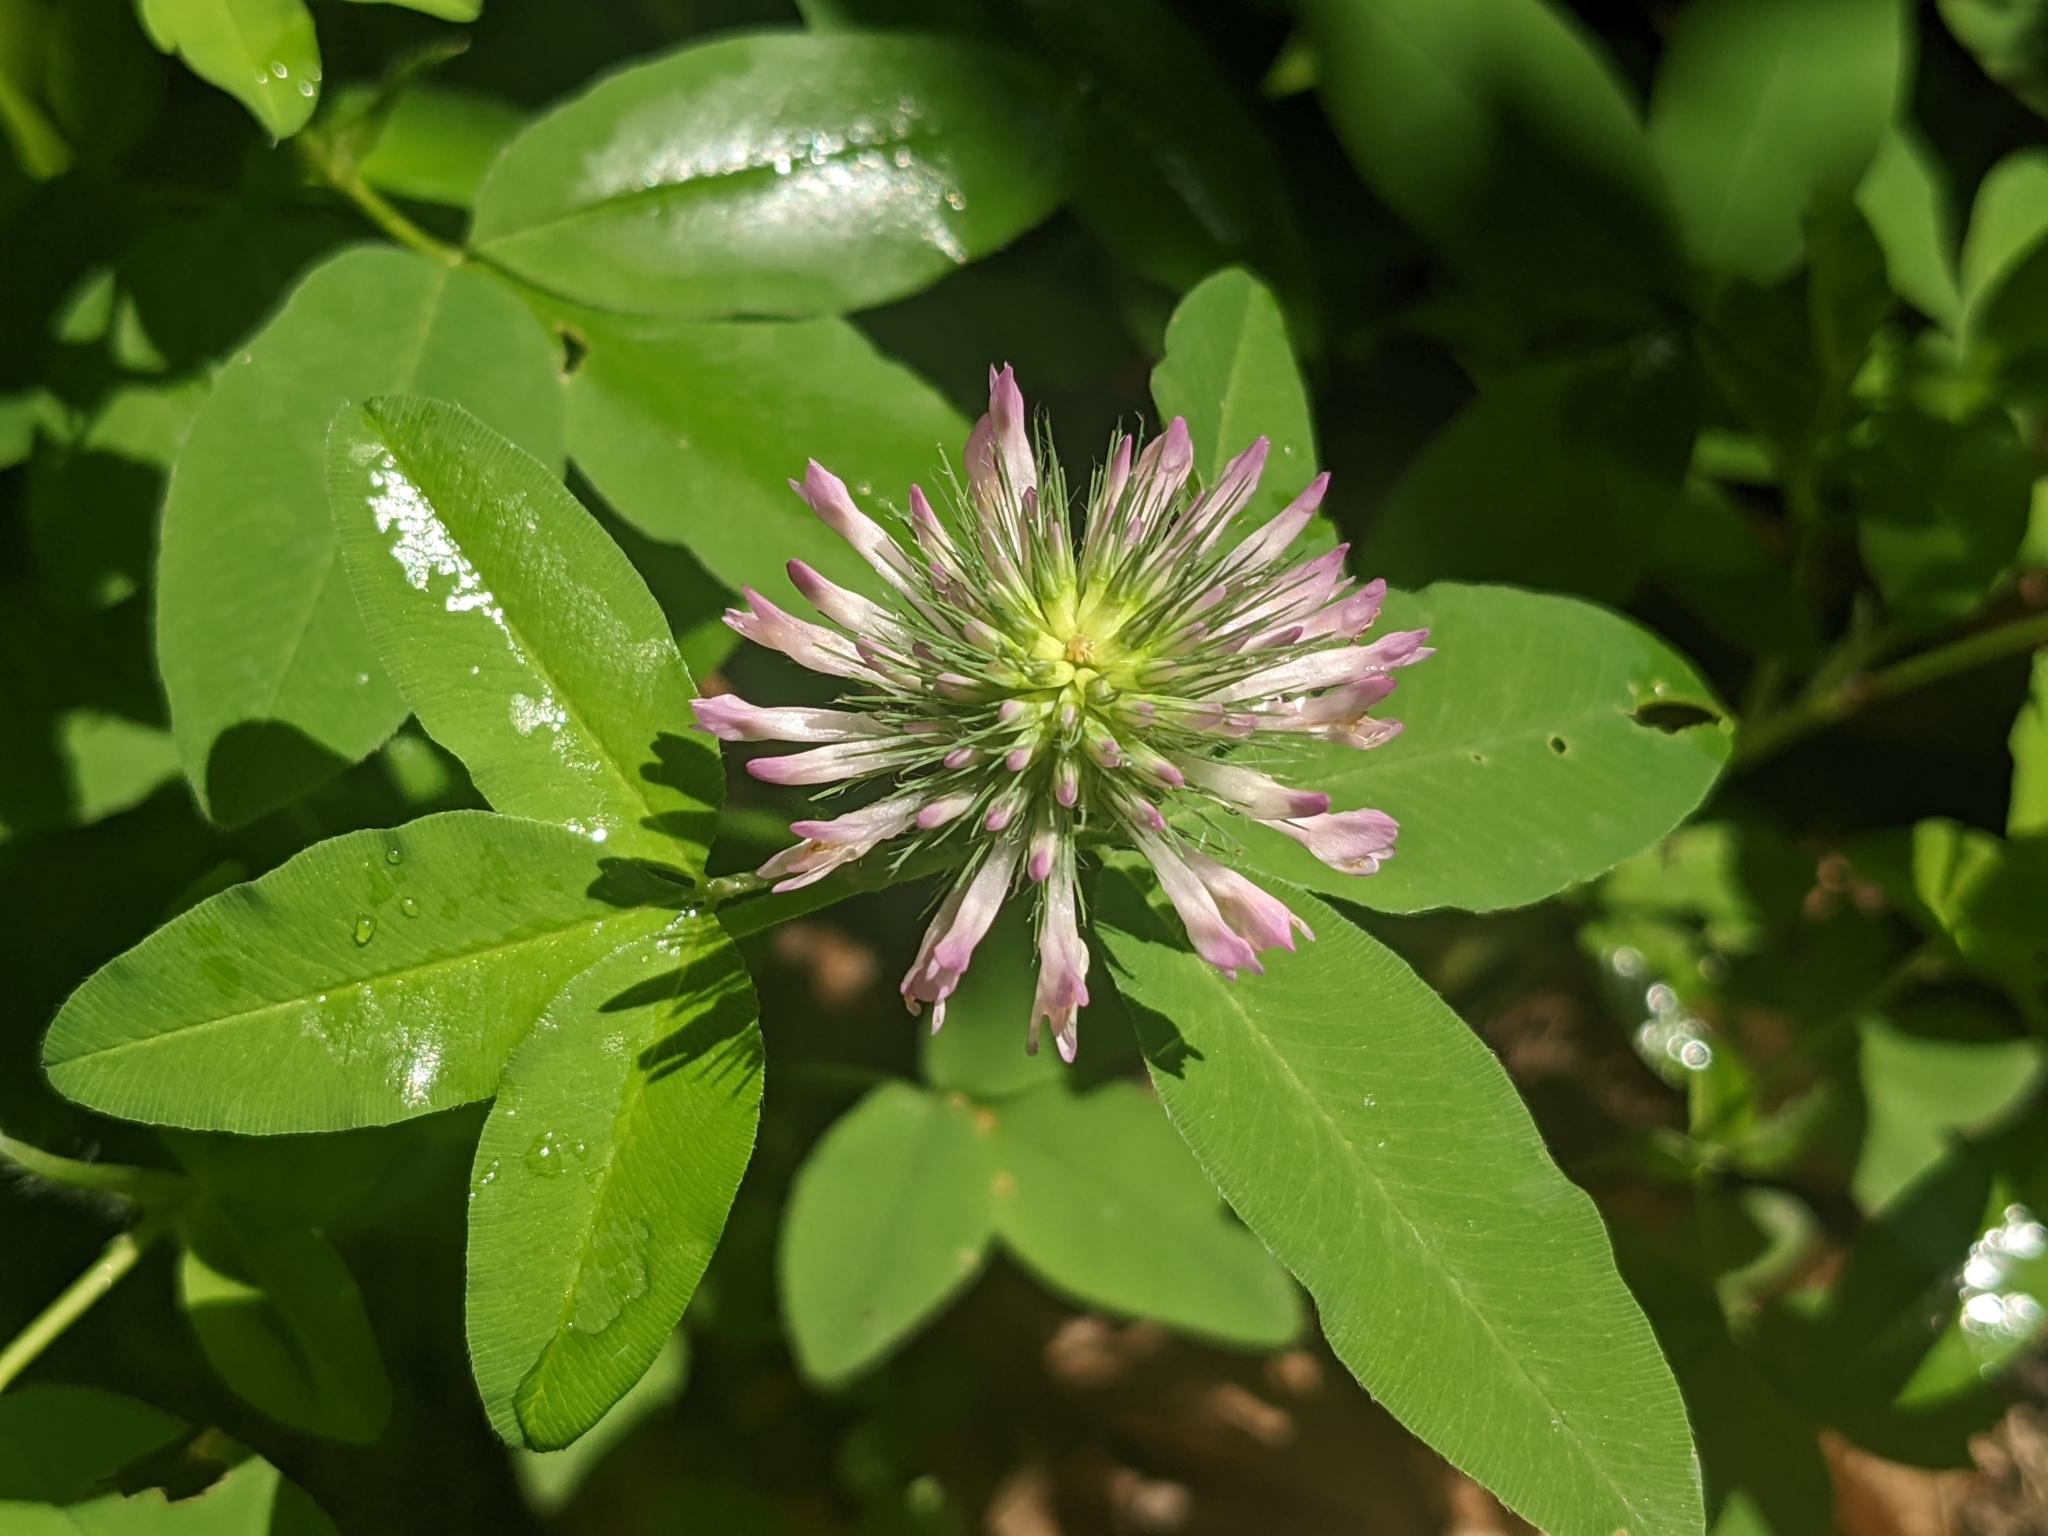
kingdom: Plantae
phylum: Tracheophyta
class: Magnoliopsida
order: Fabales
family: Fabaceae
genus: Trifolium
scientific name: Trifolium medium
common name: Zigzag clover
